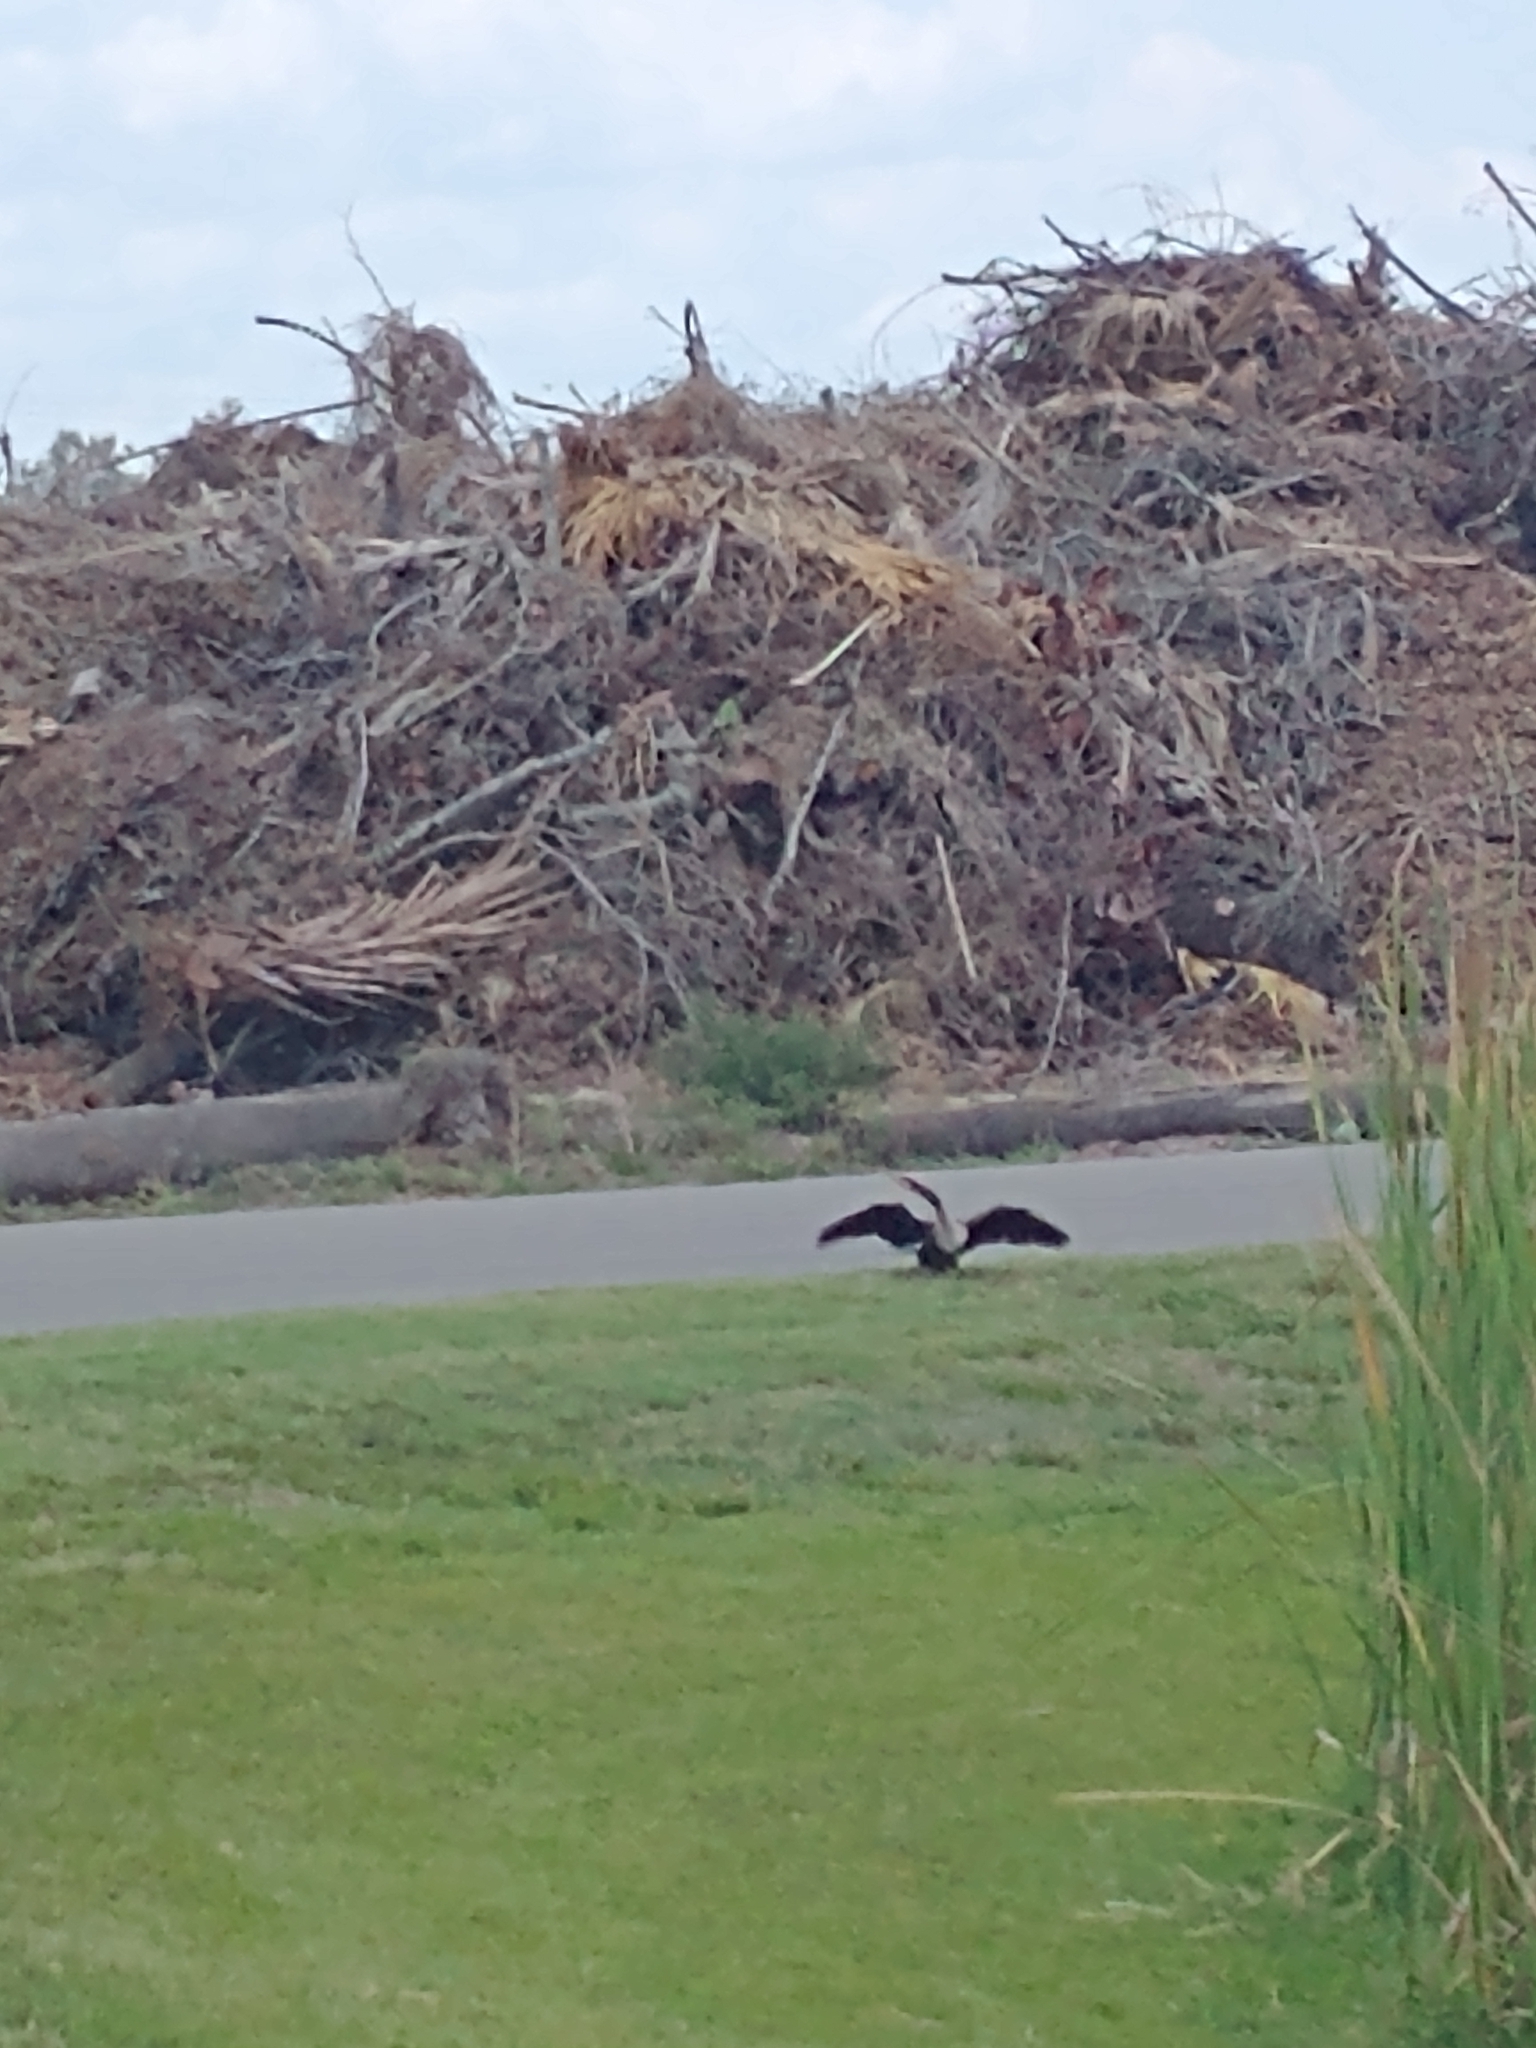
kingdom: Animalia
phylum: Chordata
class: Aves
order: Suliformes
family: Anhingidae
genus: Anhinga
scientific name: Anhinga anhinga
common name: Anhinga
